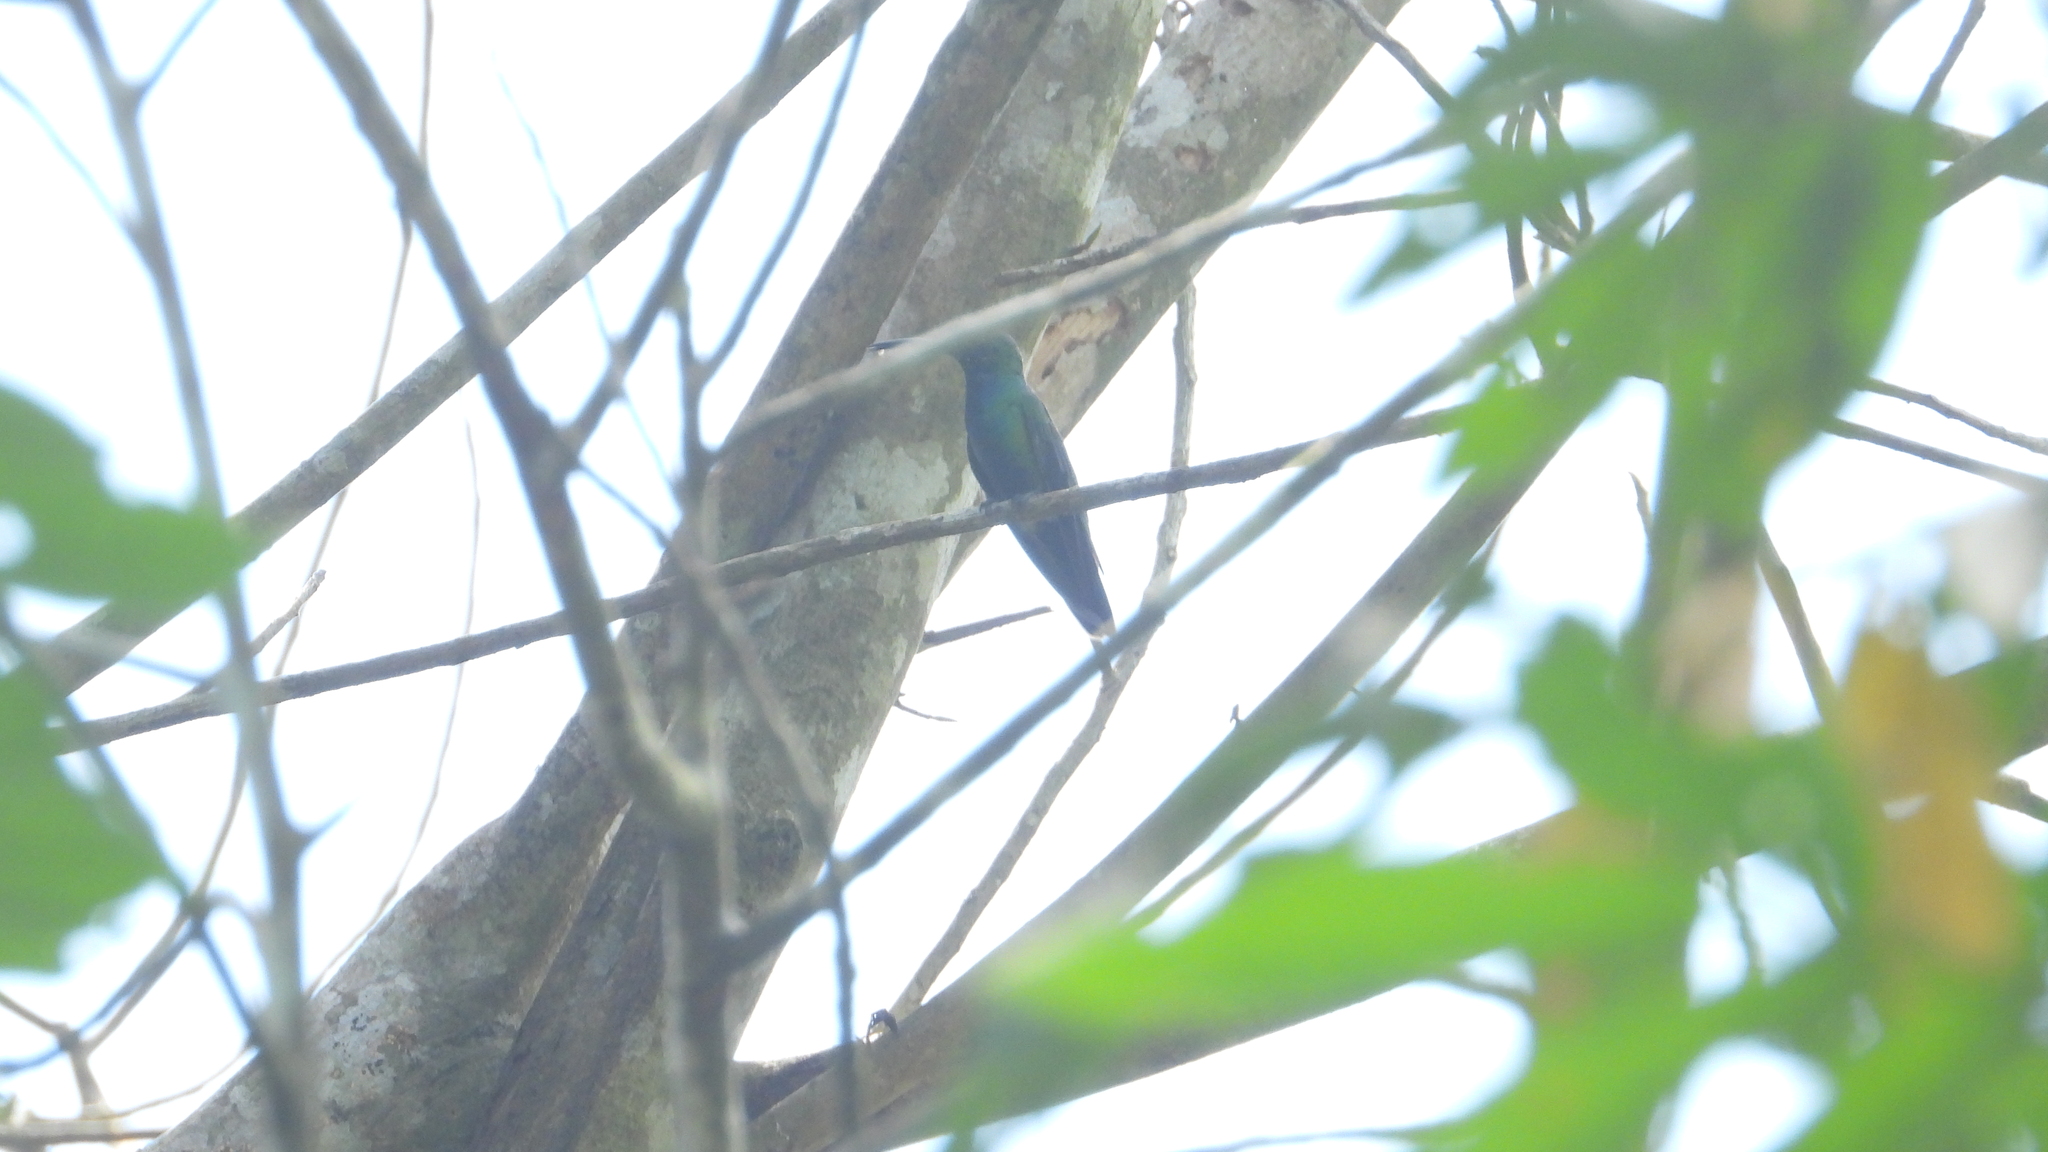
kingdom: Animalia
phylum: Chordata
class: Aves
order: Apodiformes
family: Trochilidae
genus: Anthracothorax
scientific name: Anthracothorax veraguensis
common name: Veraguan mango
